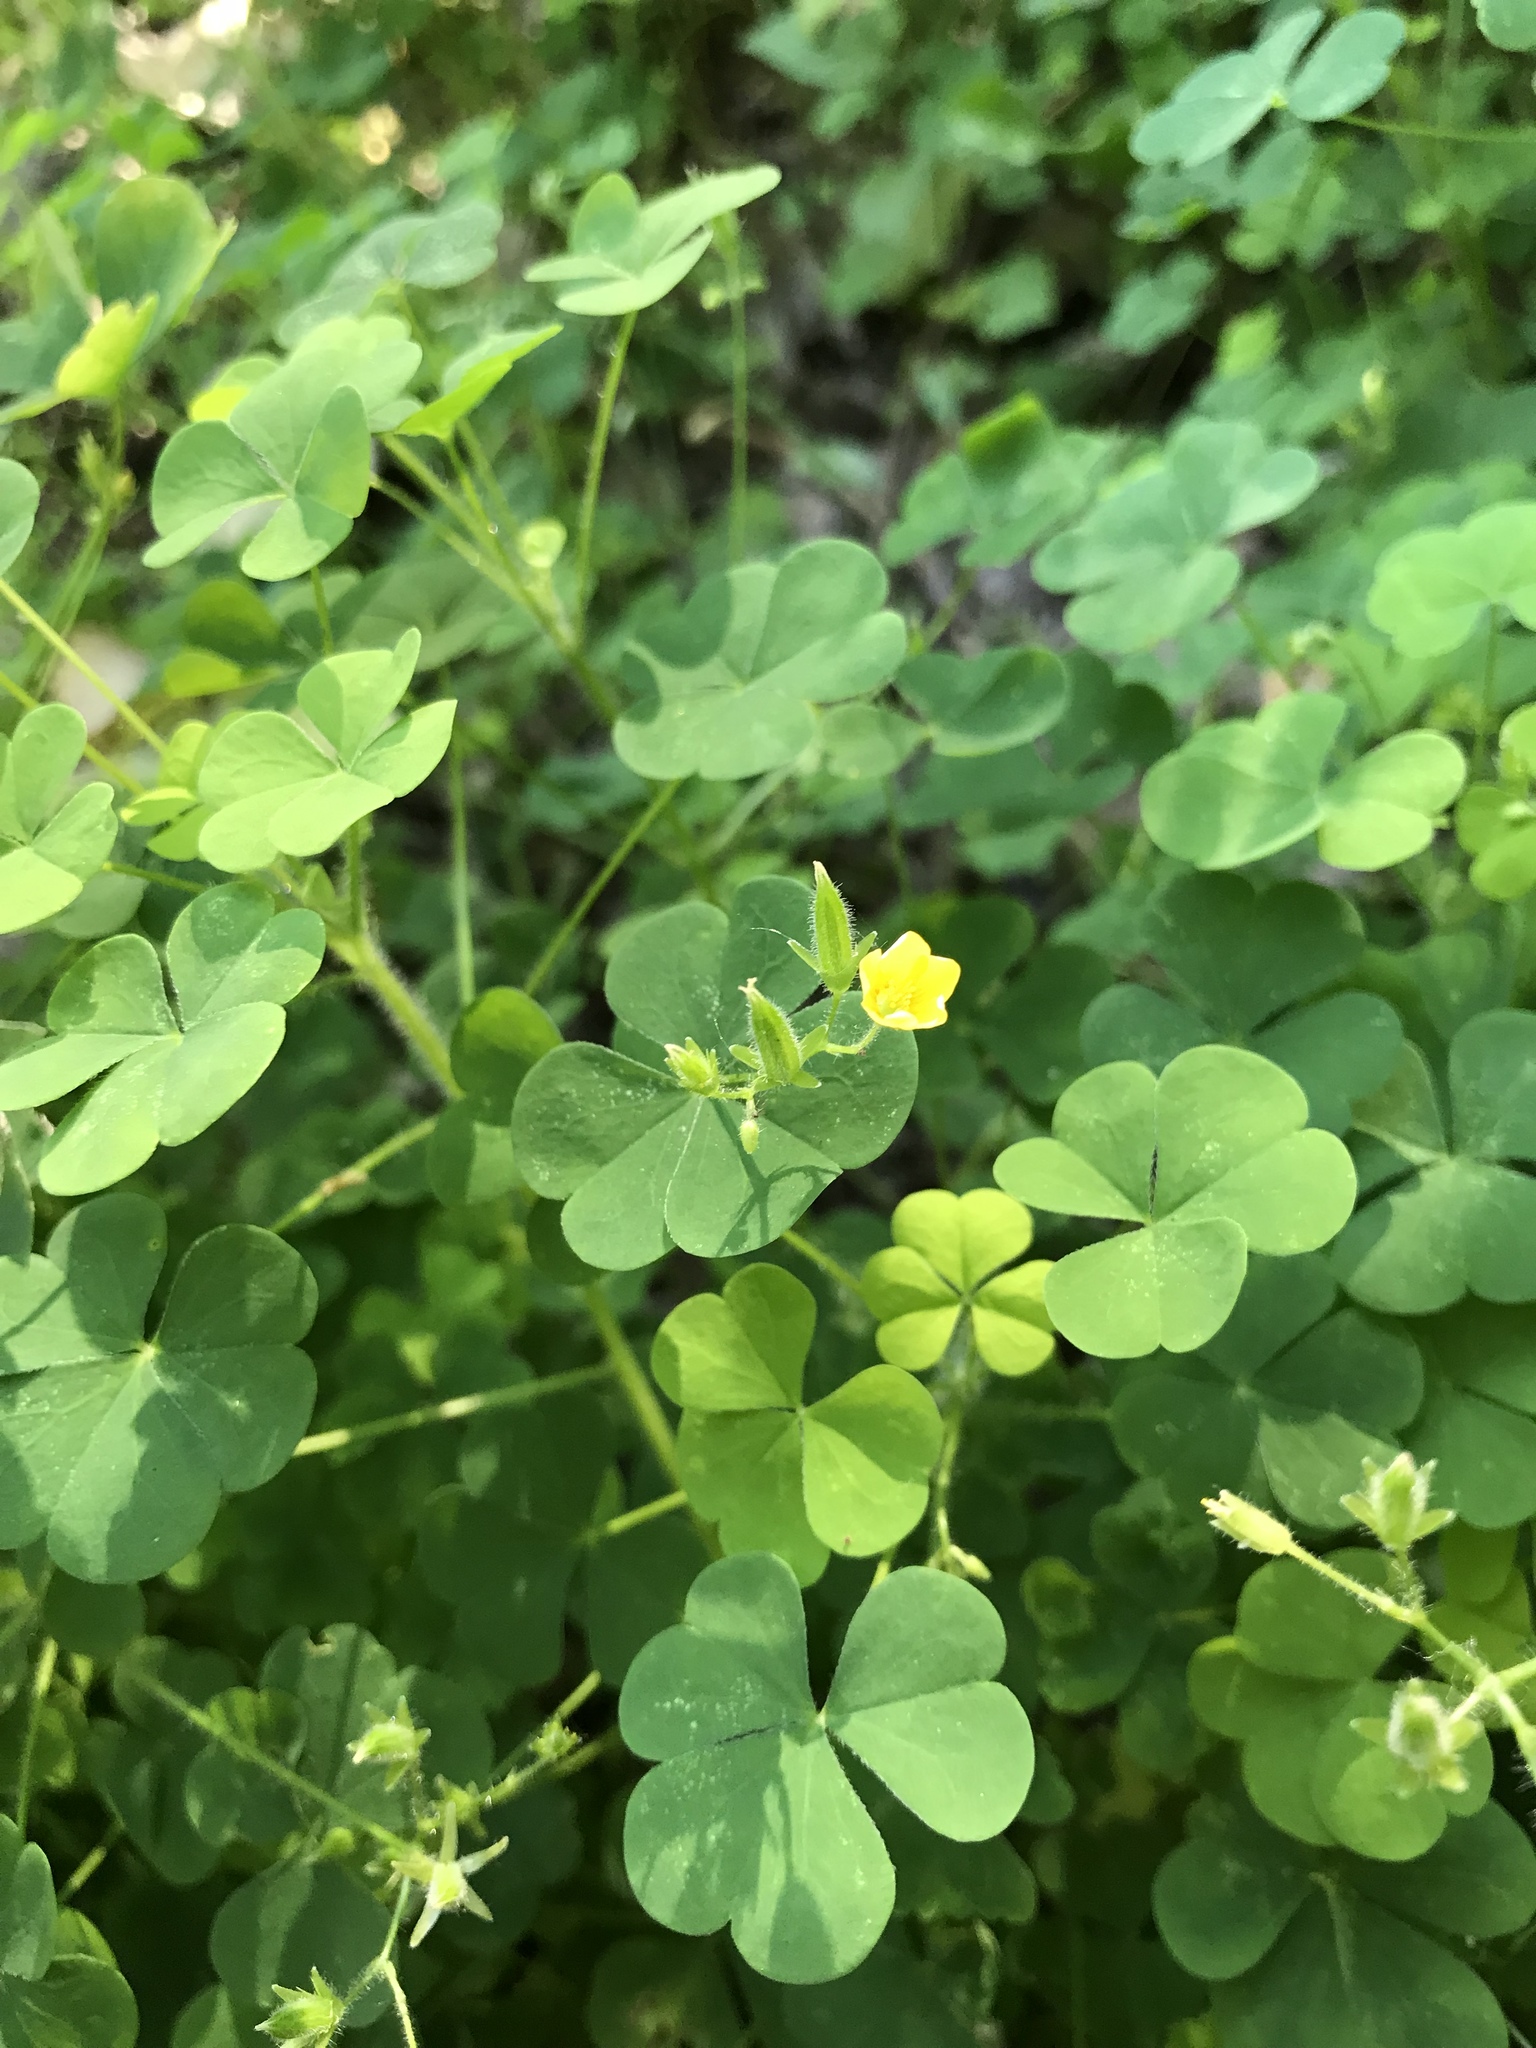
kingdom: Plantae
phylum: Tracheophyta
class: Magnoliopsida
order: Oxalidales
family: Oxalidaceae
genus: Oxalis
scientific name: Oxalis stricta
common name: Upright yellow-sorrel
